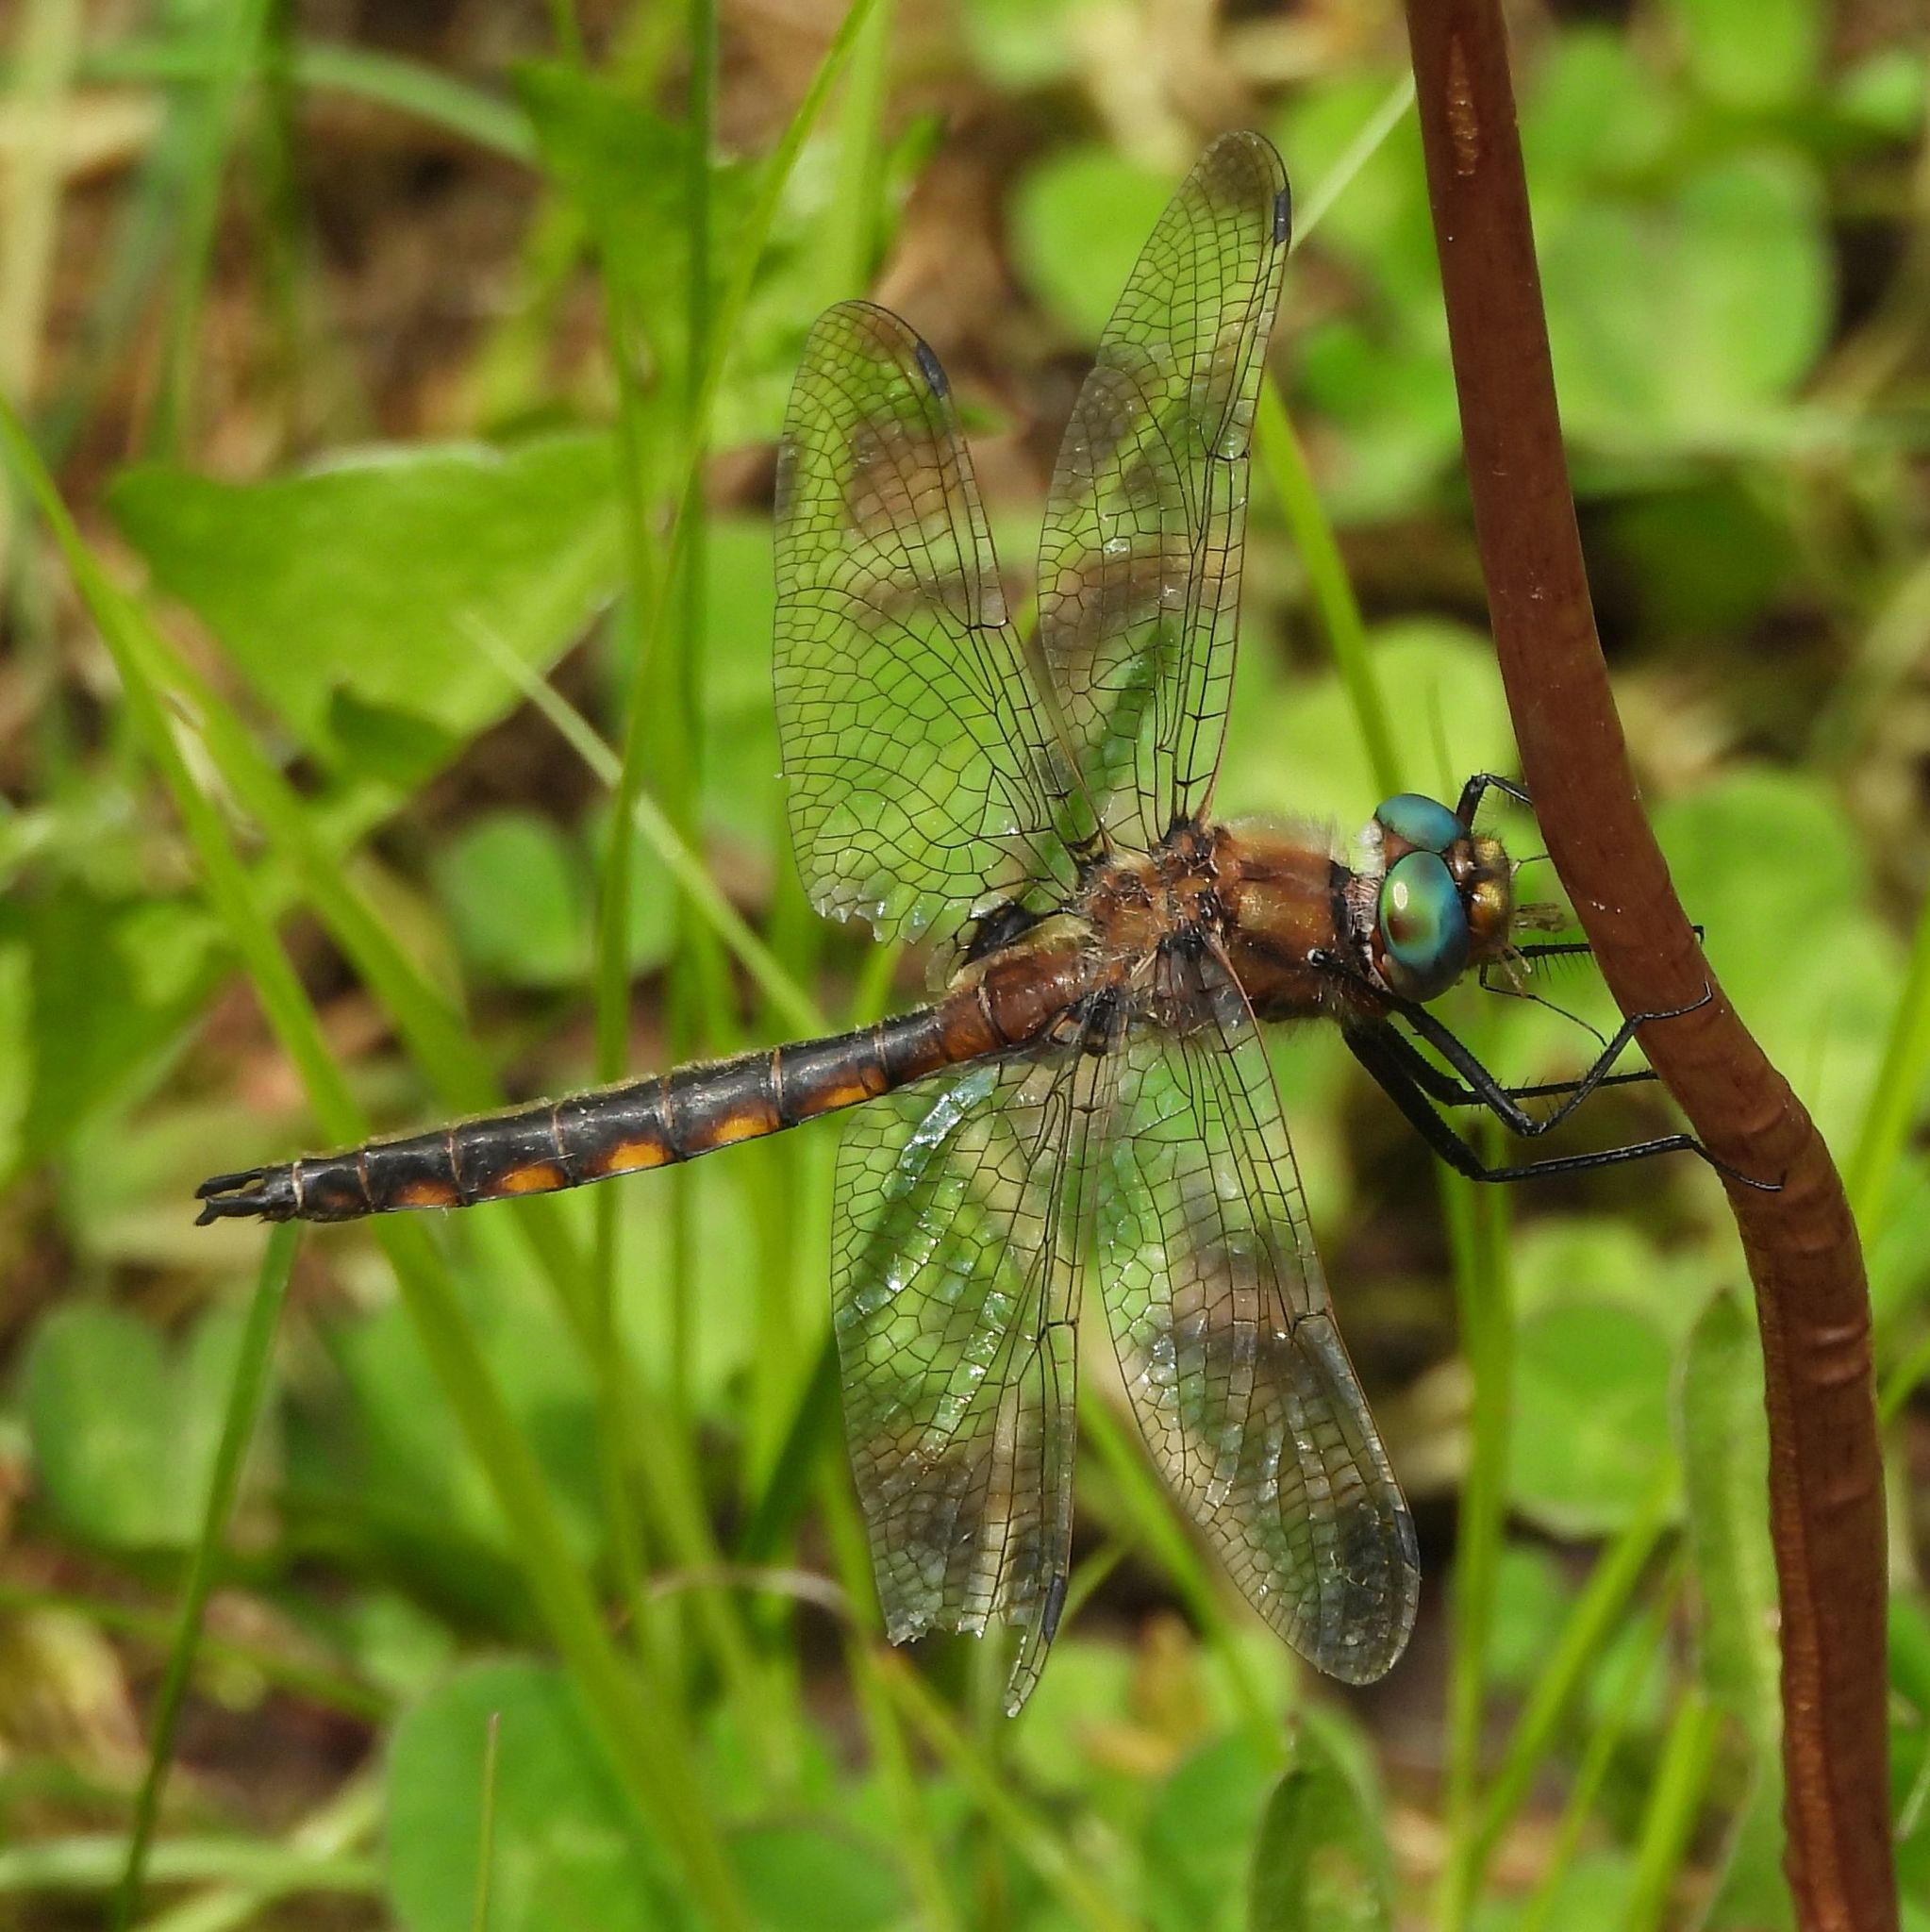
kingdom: Animalia
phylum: Arthropoda
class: Insecta
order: Odonata
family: Corduliidae
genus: Epitheca
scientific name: Epitheca canis
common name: Beaverpond baskettail
